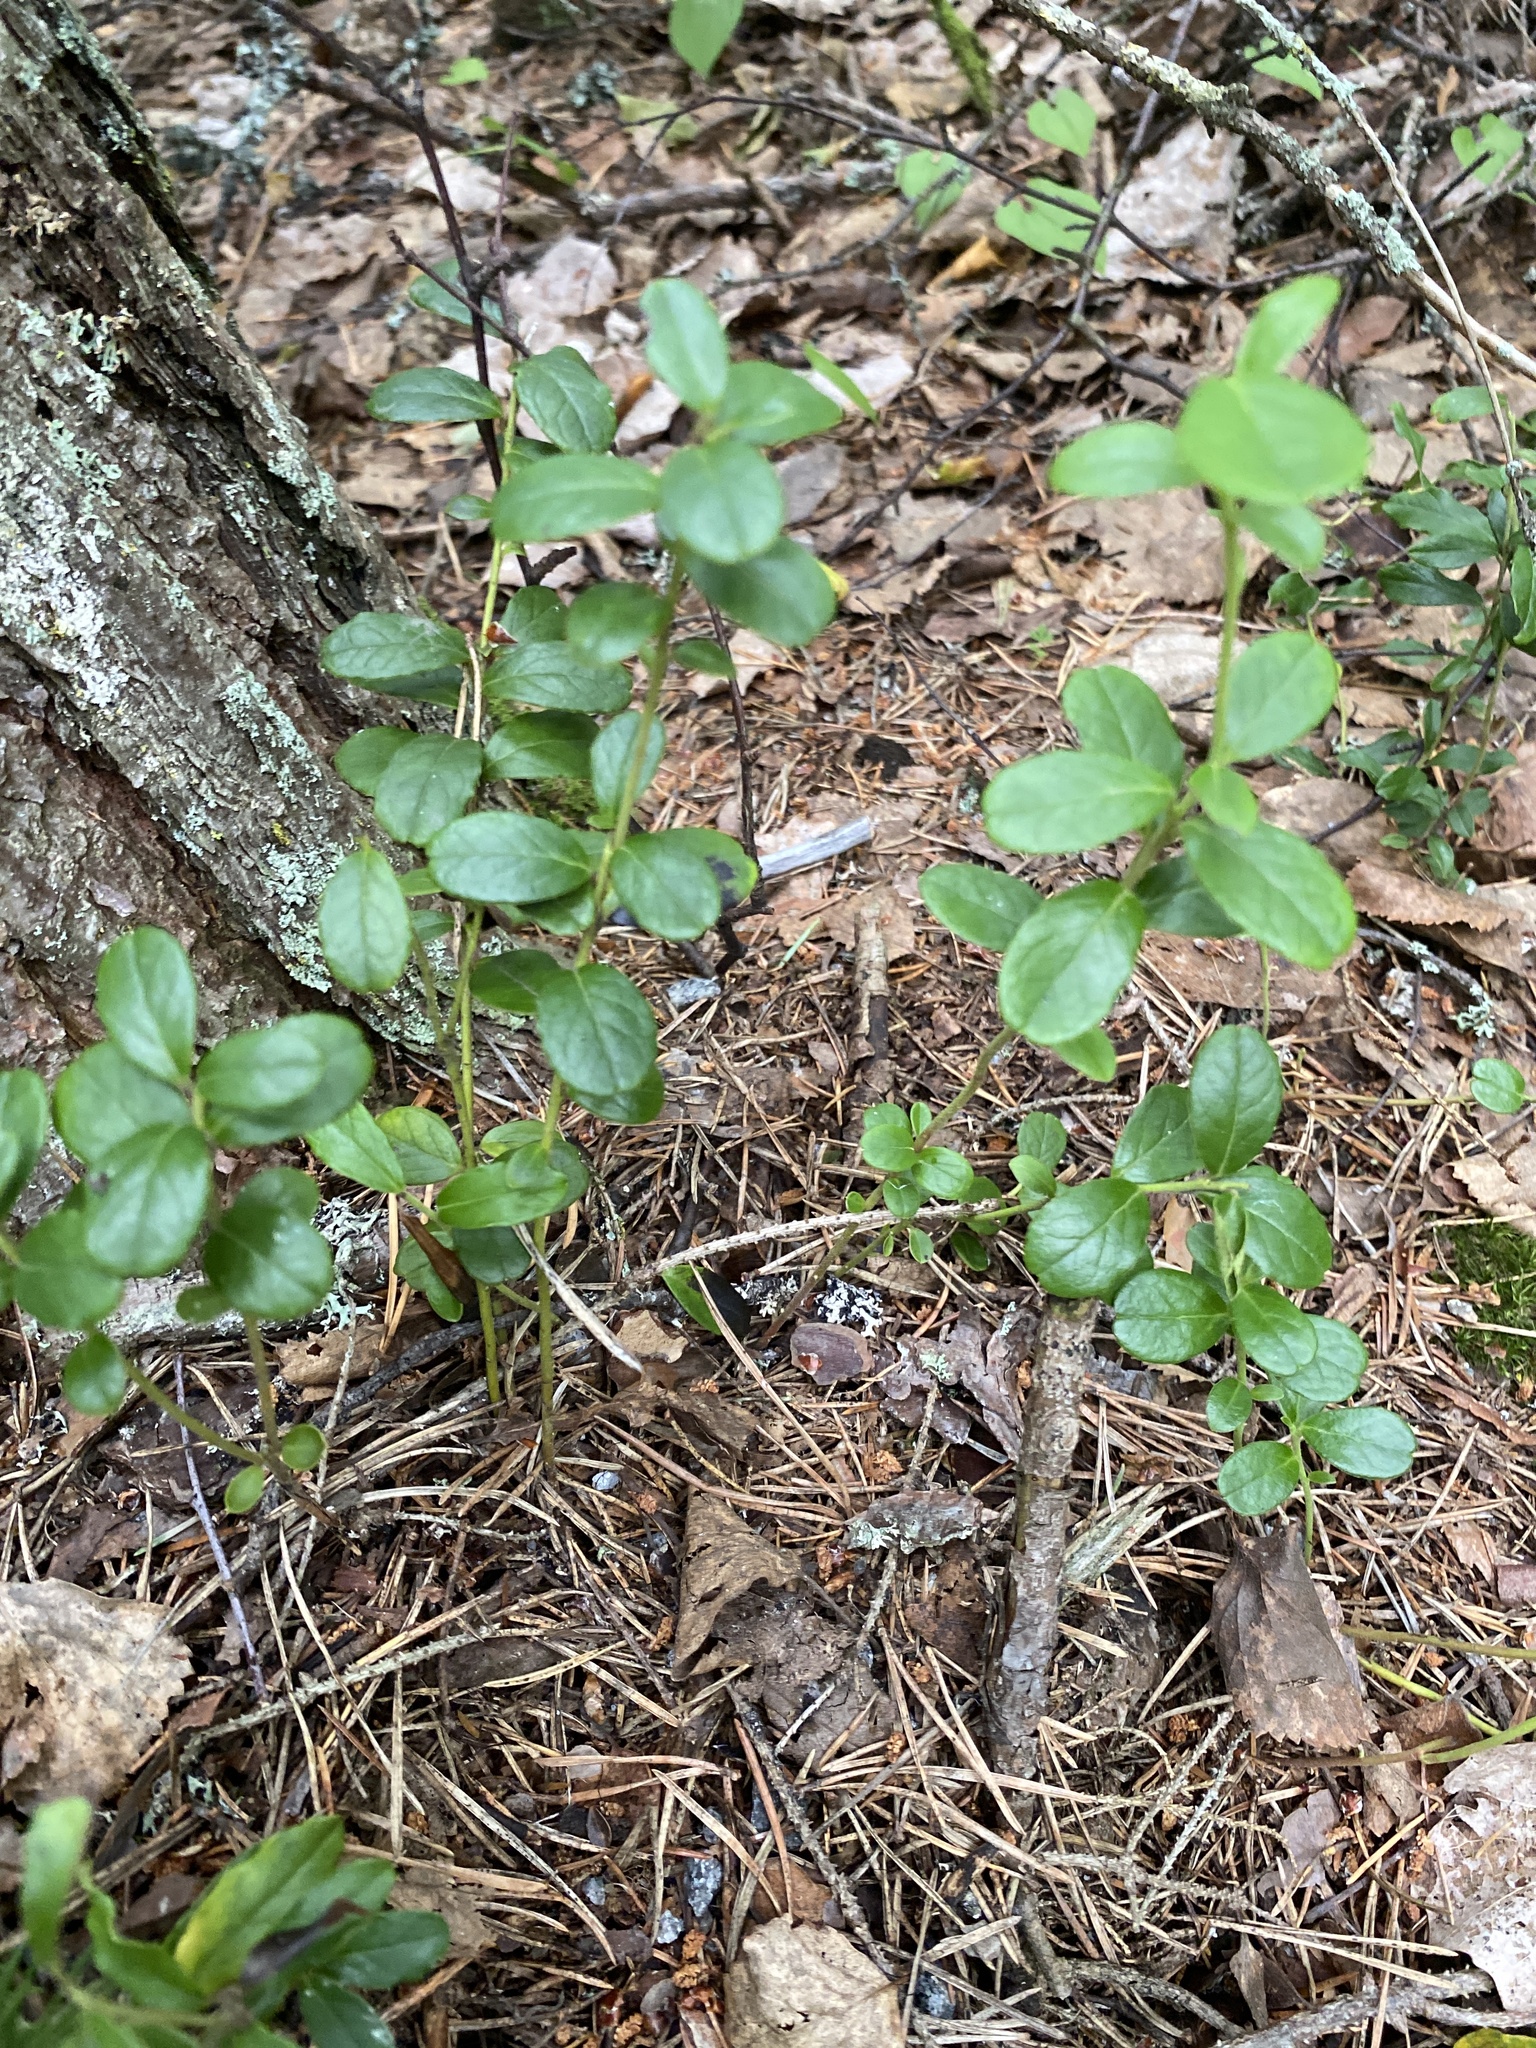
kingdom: Plantae
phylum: Tracheophyta
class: Magnoliopsida
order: Ericales
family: Ericaceae
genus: Vaccinium
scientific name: Vaccinium vitis-idaea
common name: Cowberry
